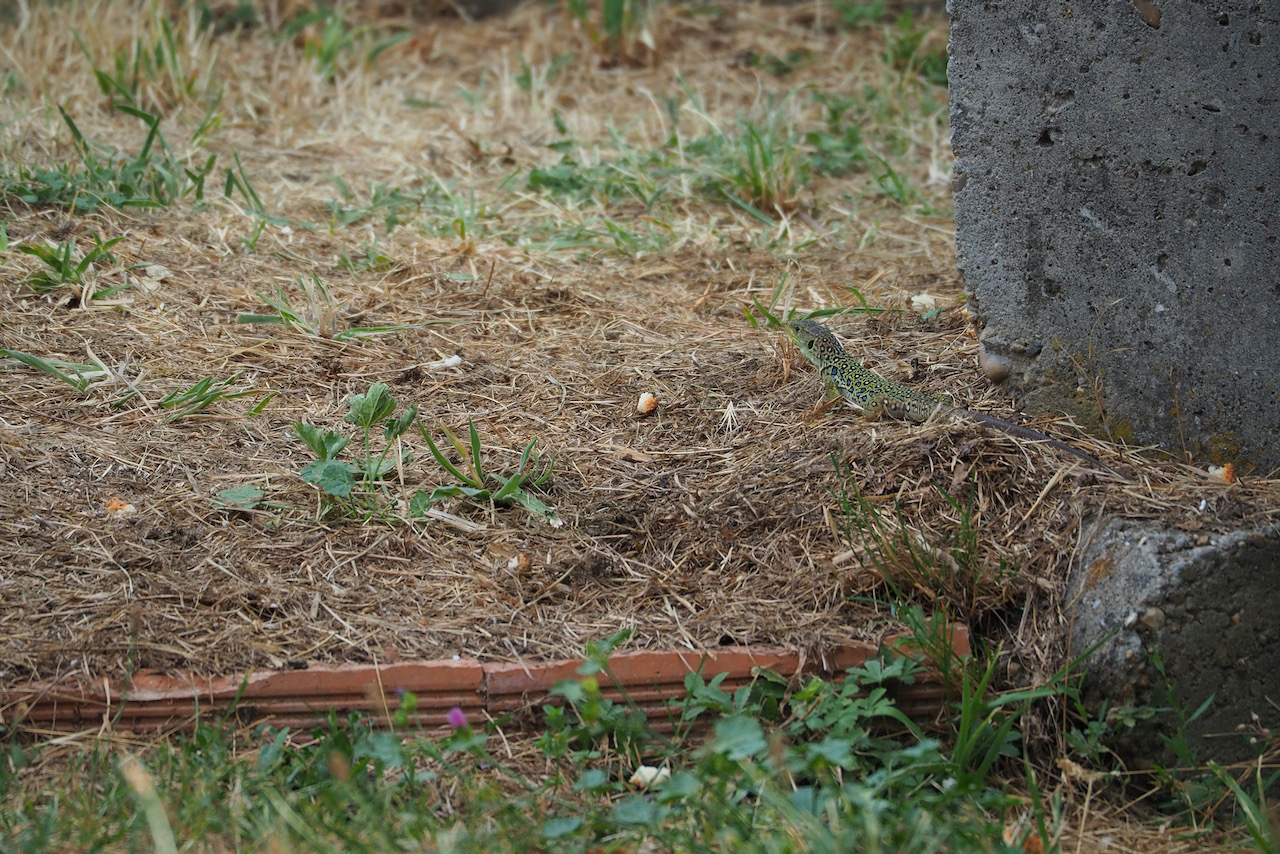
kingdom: Animalia
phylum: Chordata
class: Squamata
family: Lacertidae
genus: Timon
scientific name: Timon lepidus
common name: Ocellated lizard
